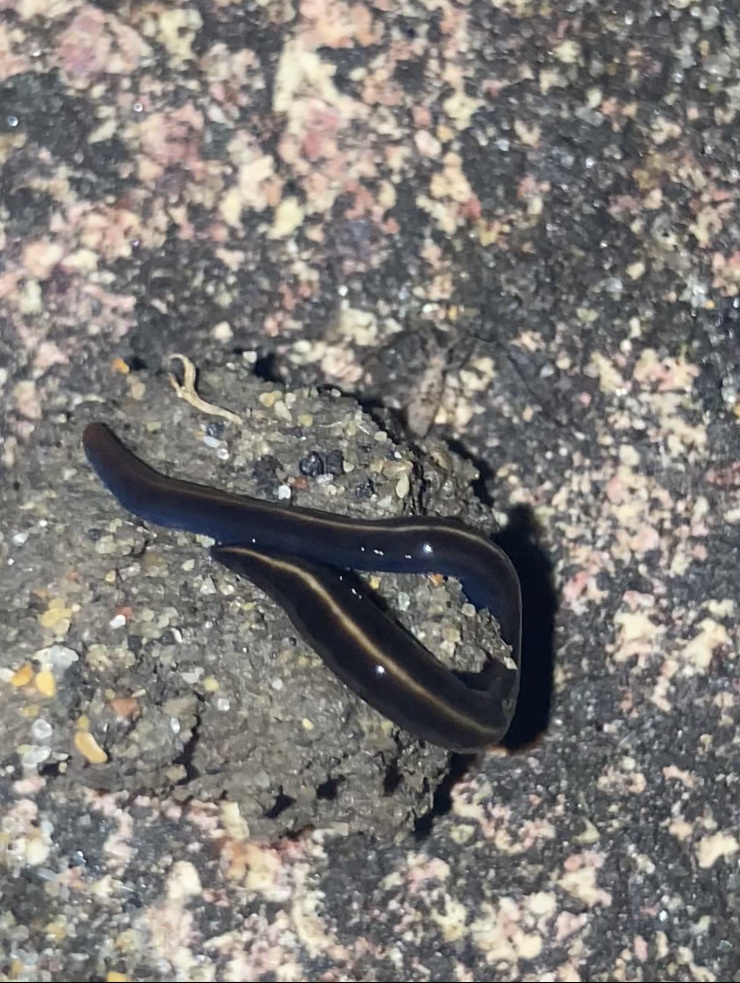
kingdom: Animalia
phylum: Platyhelminthes
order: Tricladida
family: Geoplanidae
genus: Caenoplana
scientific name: Caenoplana coerulea
